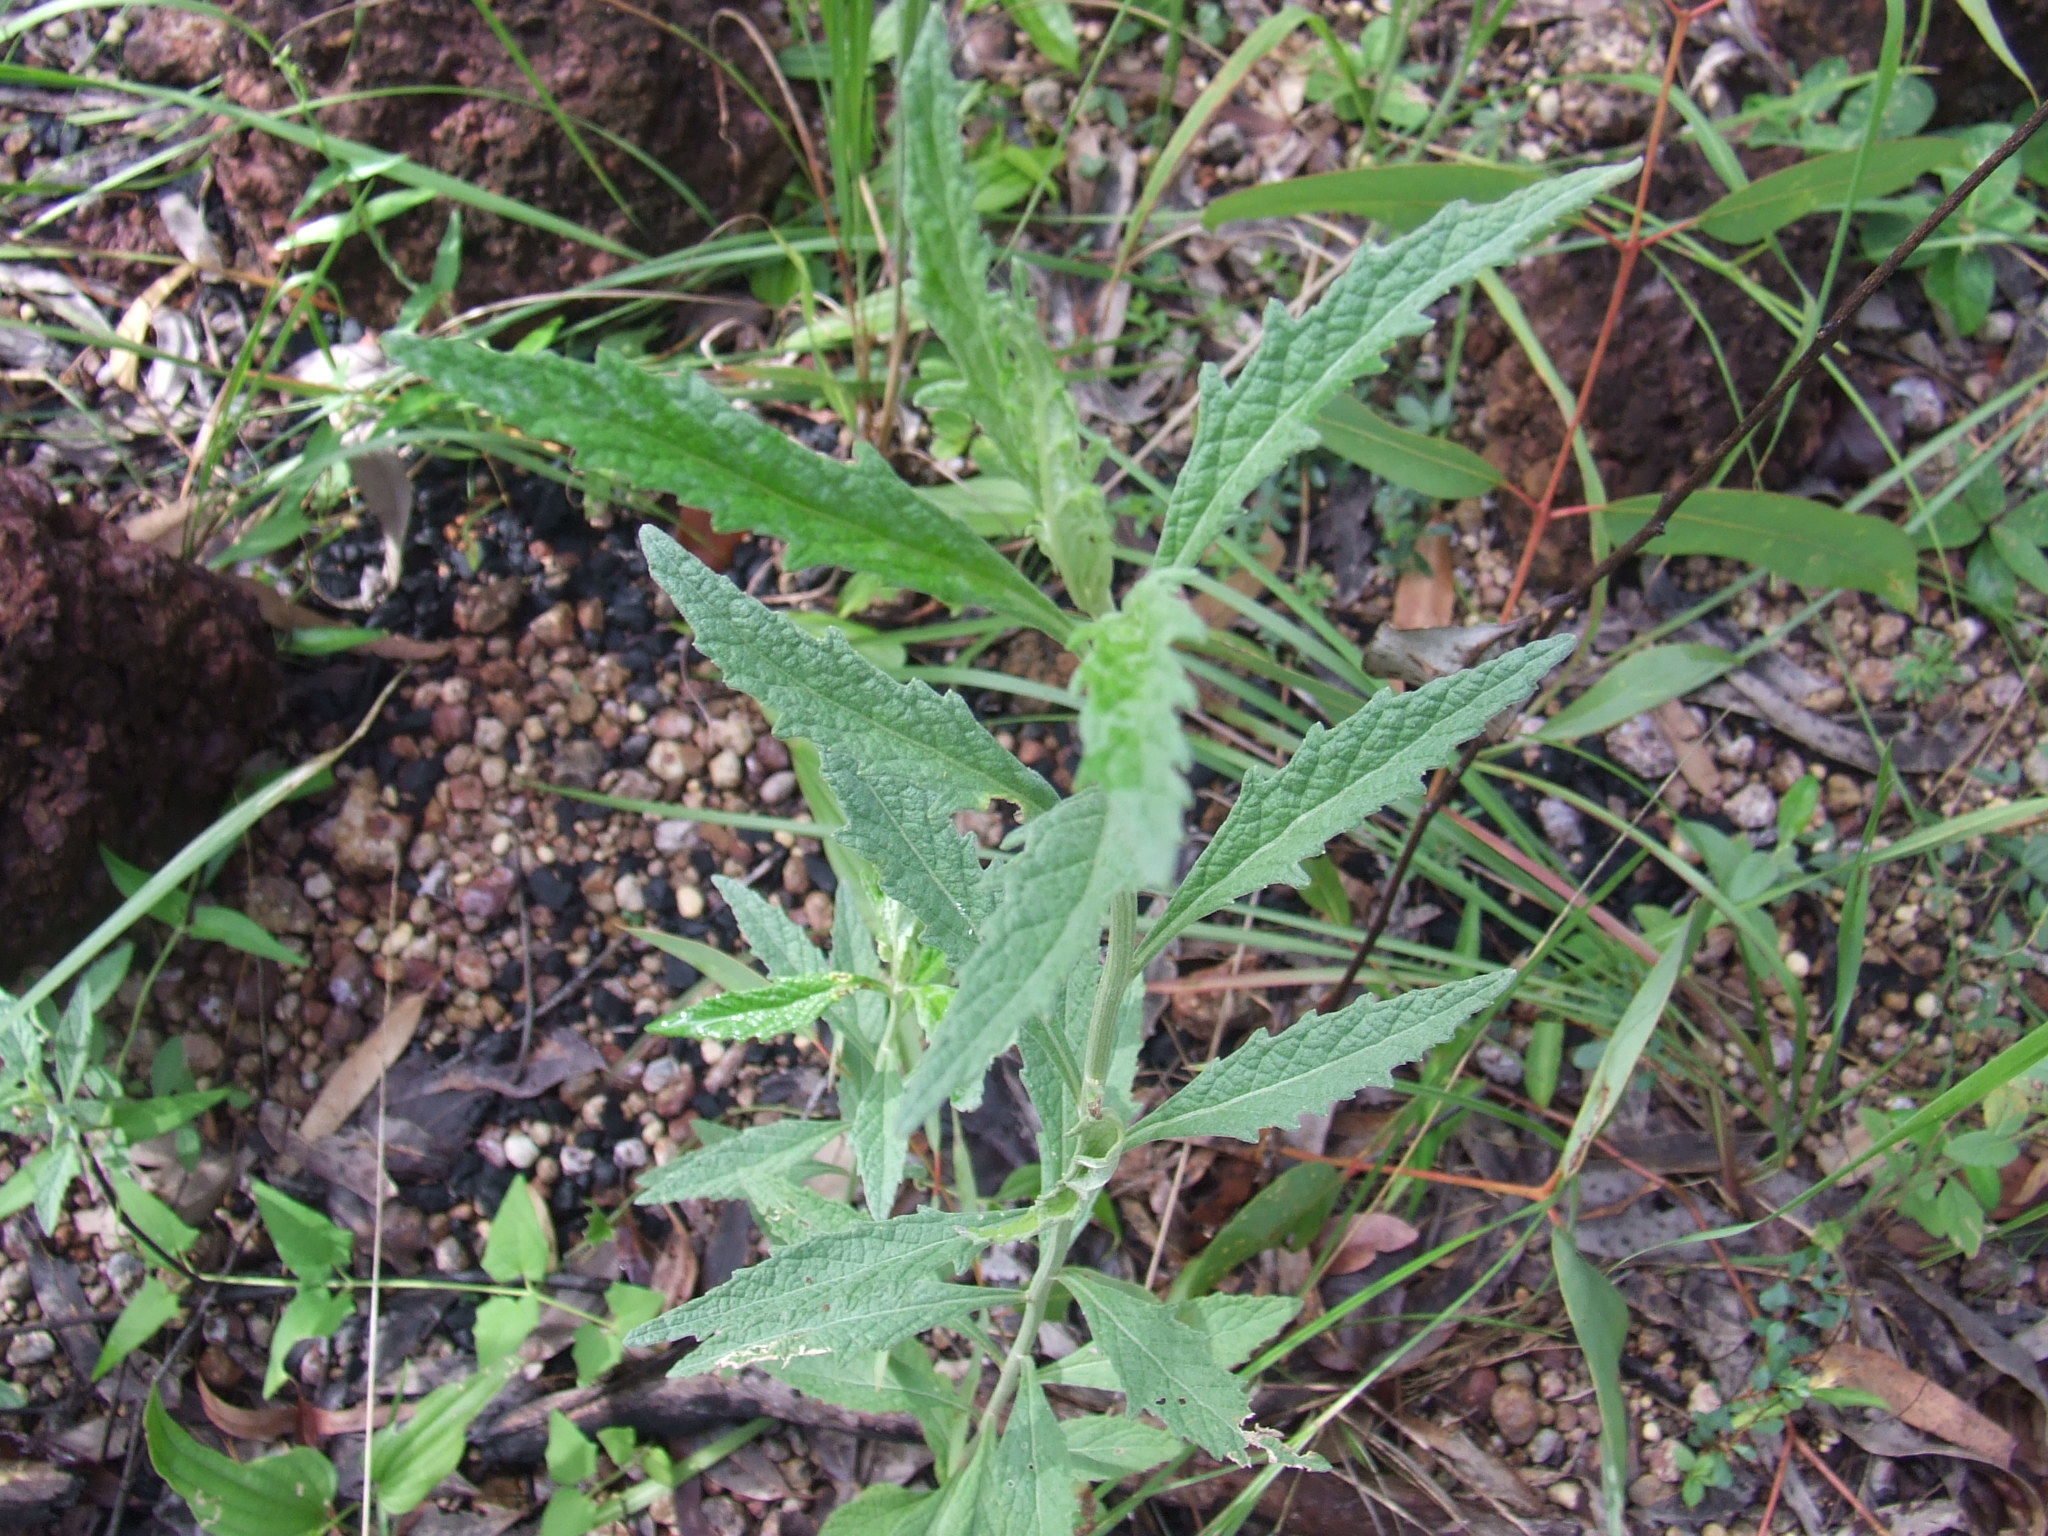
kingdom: Plantae
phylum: Tracheophyta
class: Magnoliopsida
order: Asterales
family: Asteraceae
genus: Cyanthillium
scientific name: Cyanthillium cinereum
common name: Little ironweed
